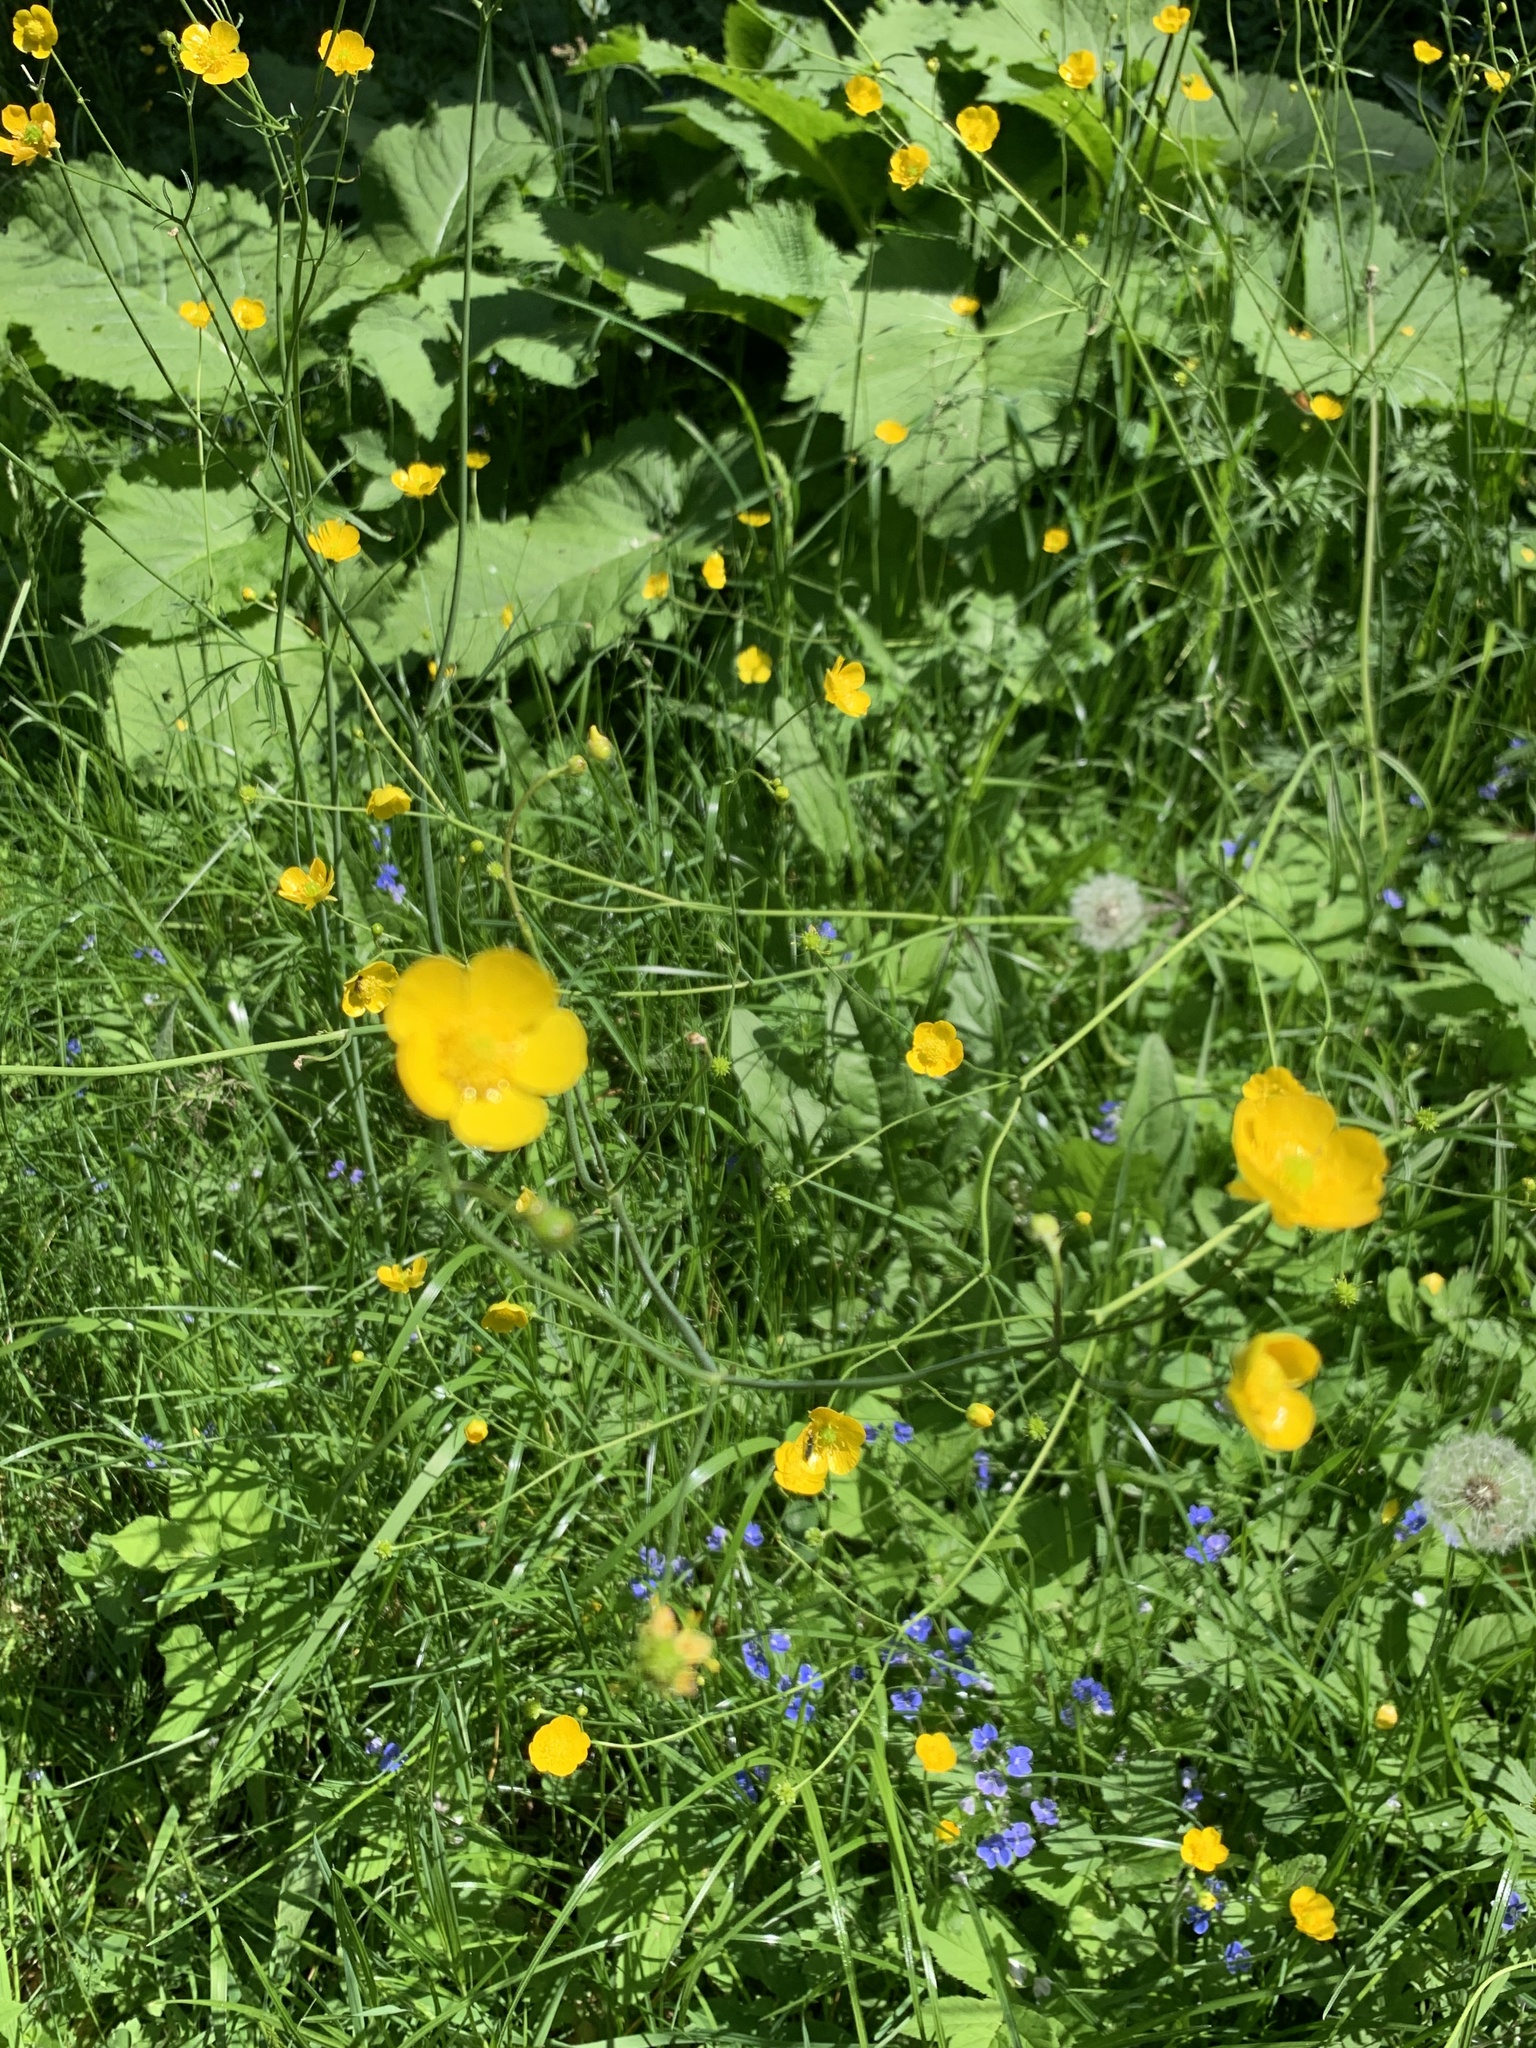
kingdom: Plantae
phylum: Tracheophyta
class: Magnoliopsida
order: Ranunculales
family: Ranunculaceae
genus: Ranunculus
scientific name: Ranunculus acris
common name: Meadow buttercup
